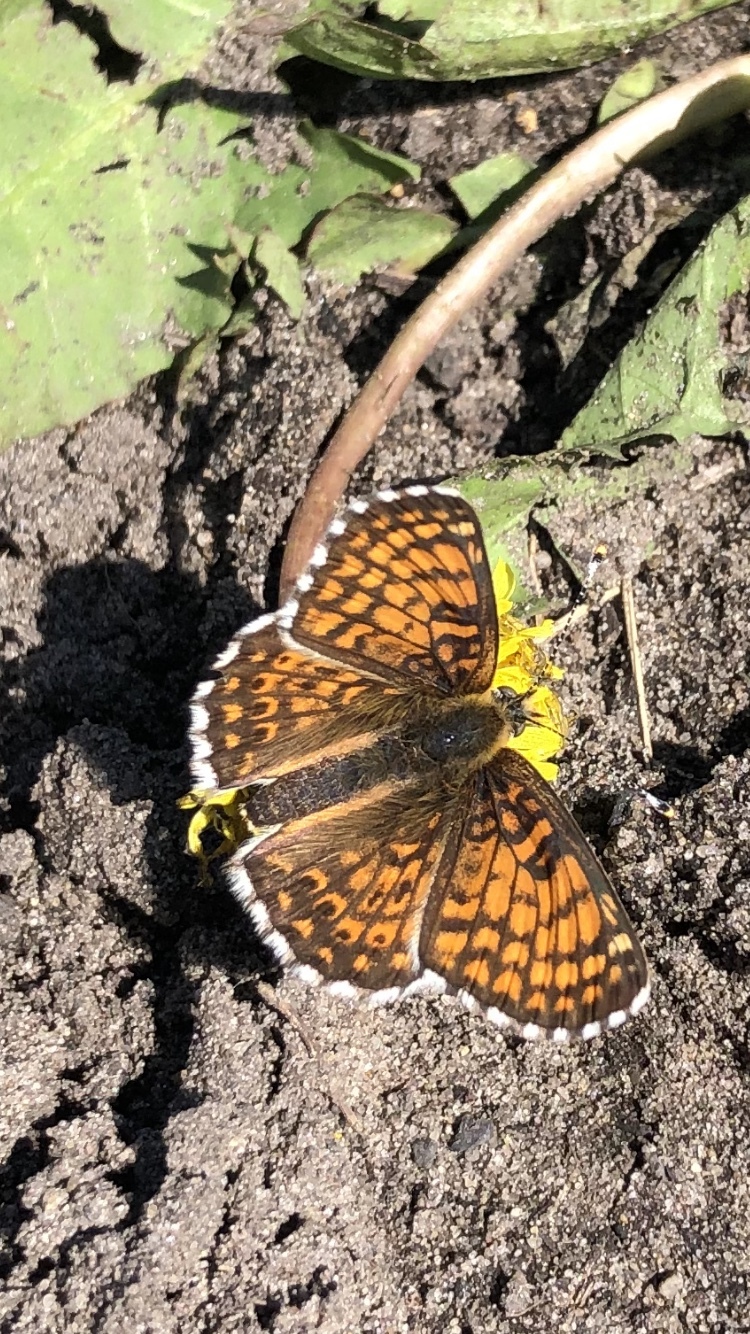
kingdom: Animalia
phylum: Arthropoda
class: Insecta
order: Lepidoptera
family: Nymphalidae
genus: Melitaea
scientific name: Melitaea cinxia
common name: Glanville fritillary
